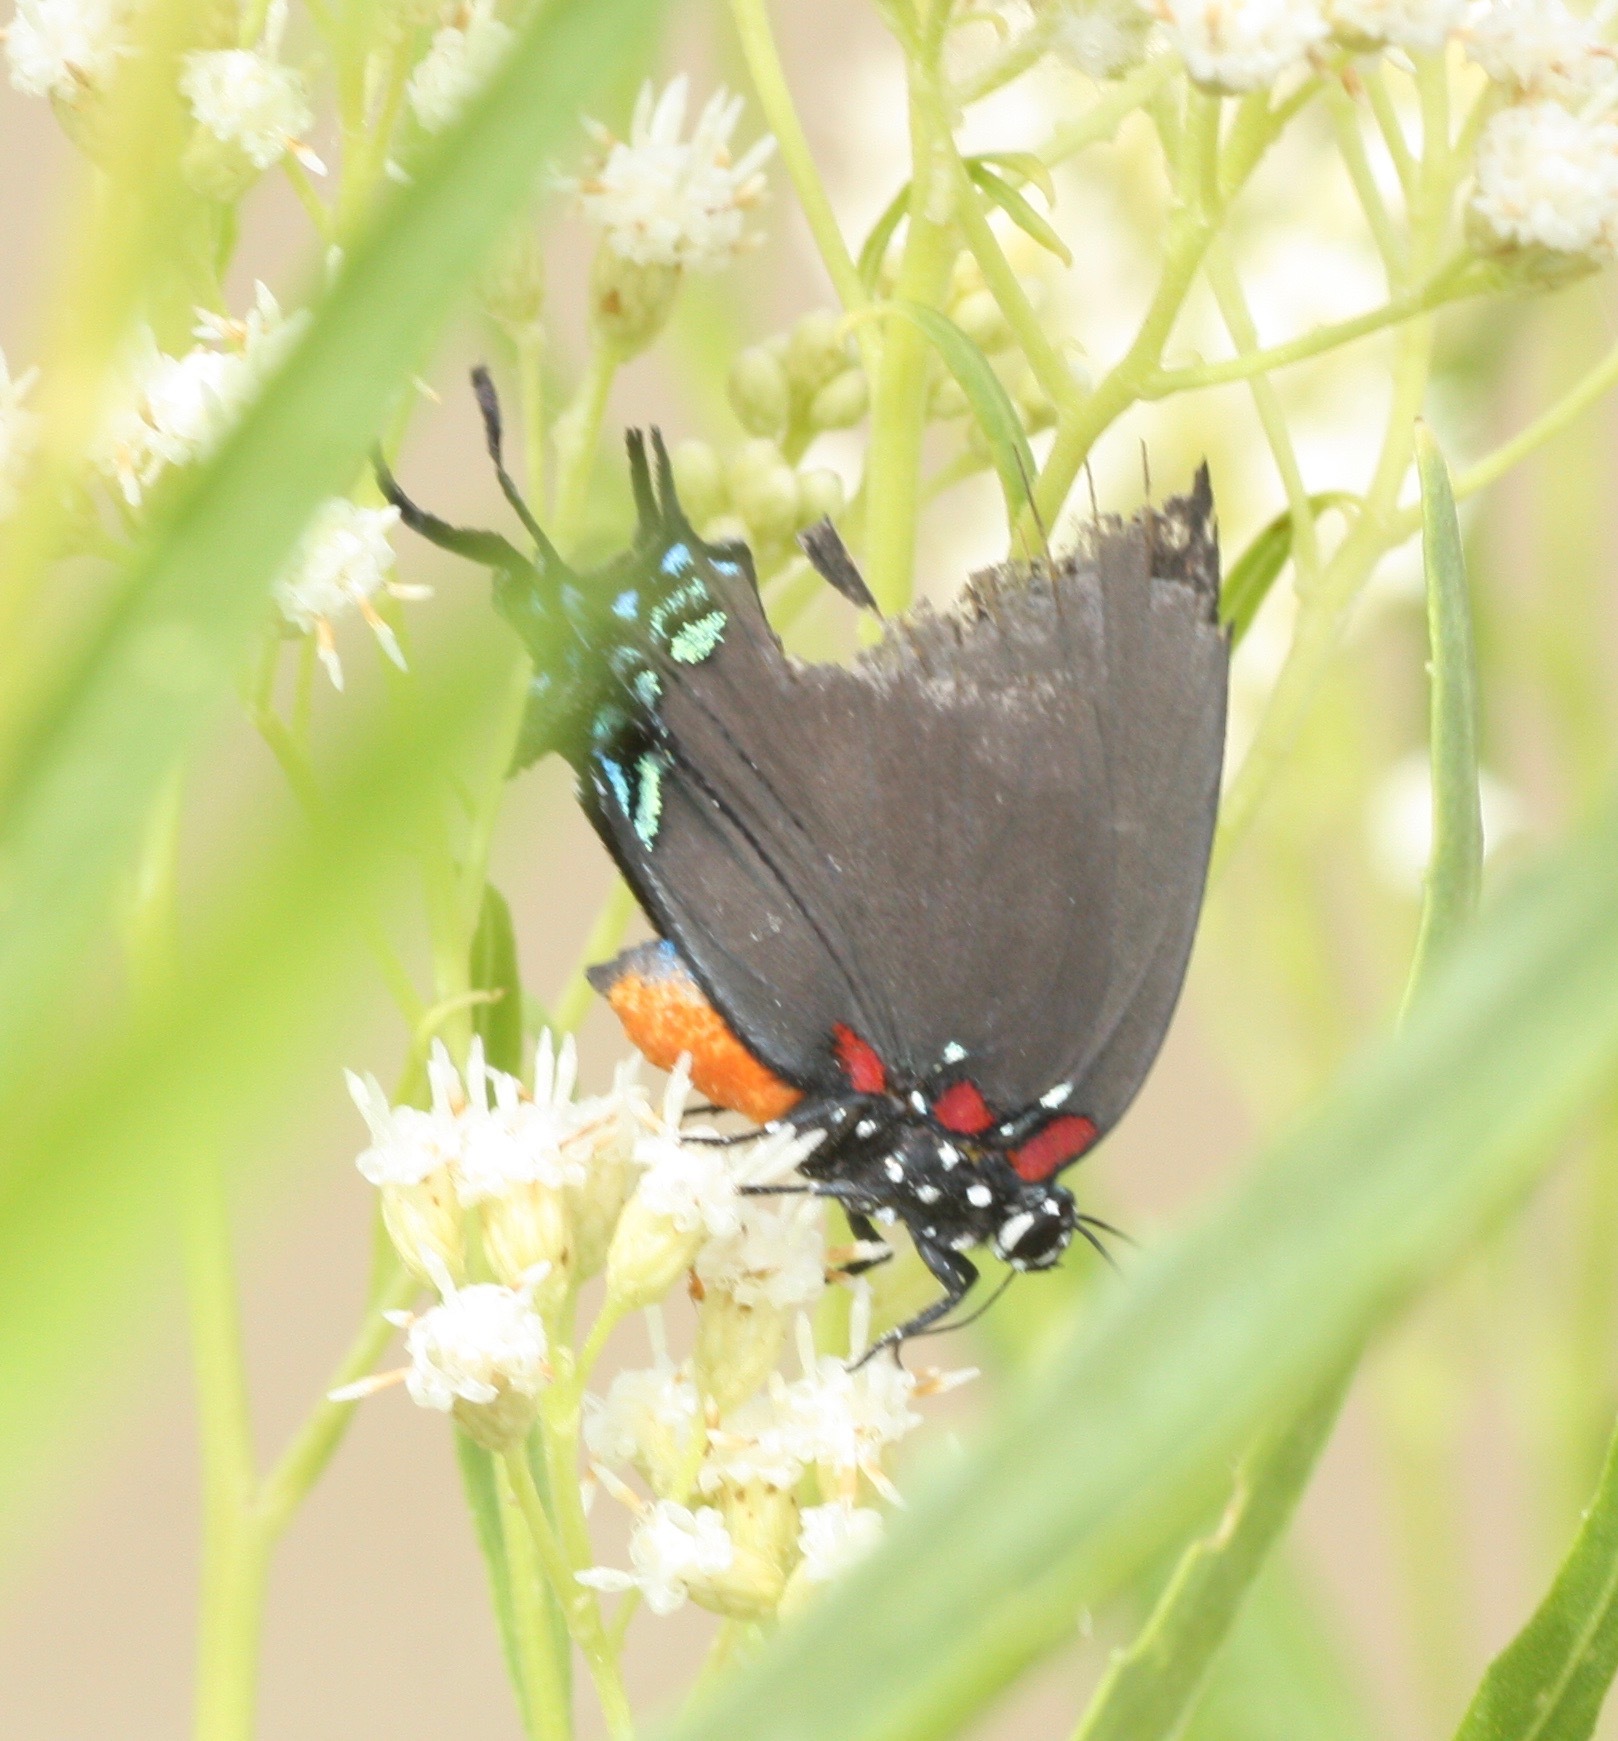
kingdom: Animalia
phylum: Arthropoda
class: Insecta
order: Lepidoptera
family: Lycaenidae
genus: Atlides
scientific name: Atlides halesus
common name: Great purple hairstreak
